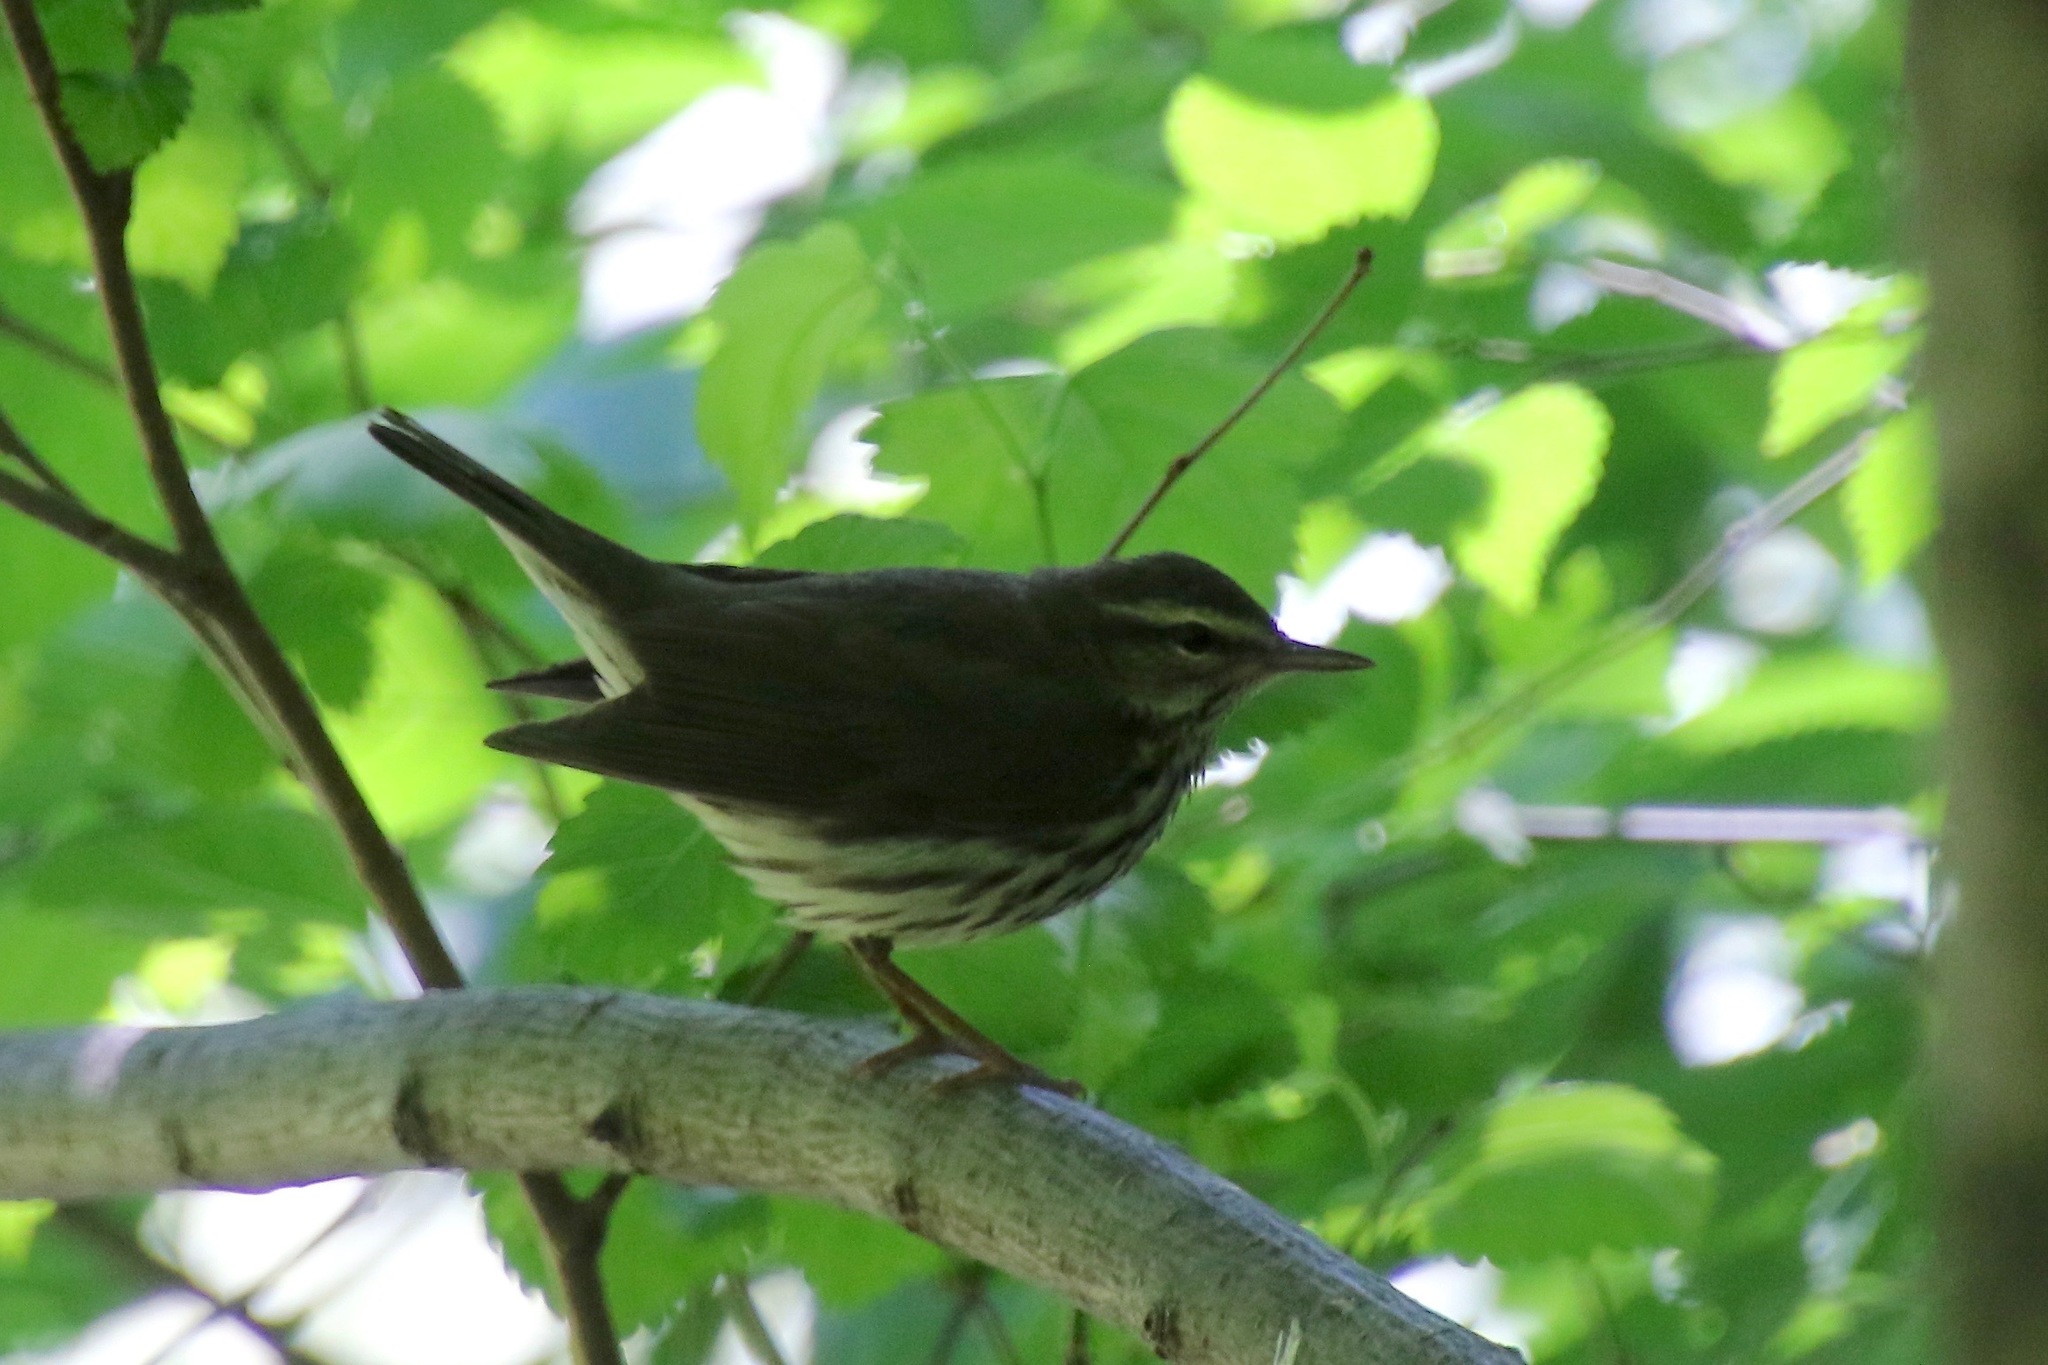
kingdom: Animalia
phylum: Chordata
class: Aves
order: Passeriformes
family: Parulidae
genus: Parkesia
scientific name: Parkesia noveboracensis
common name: Northern waterthrush
